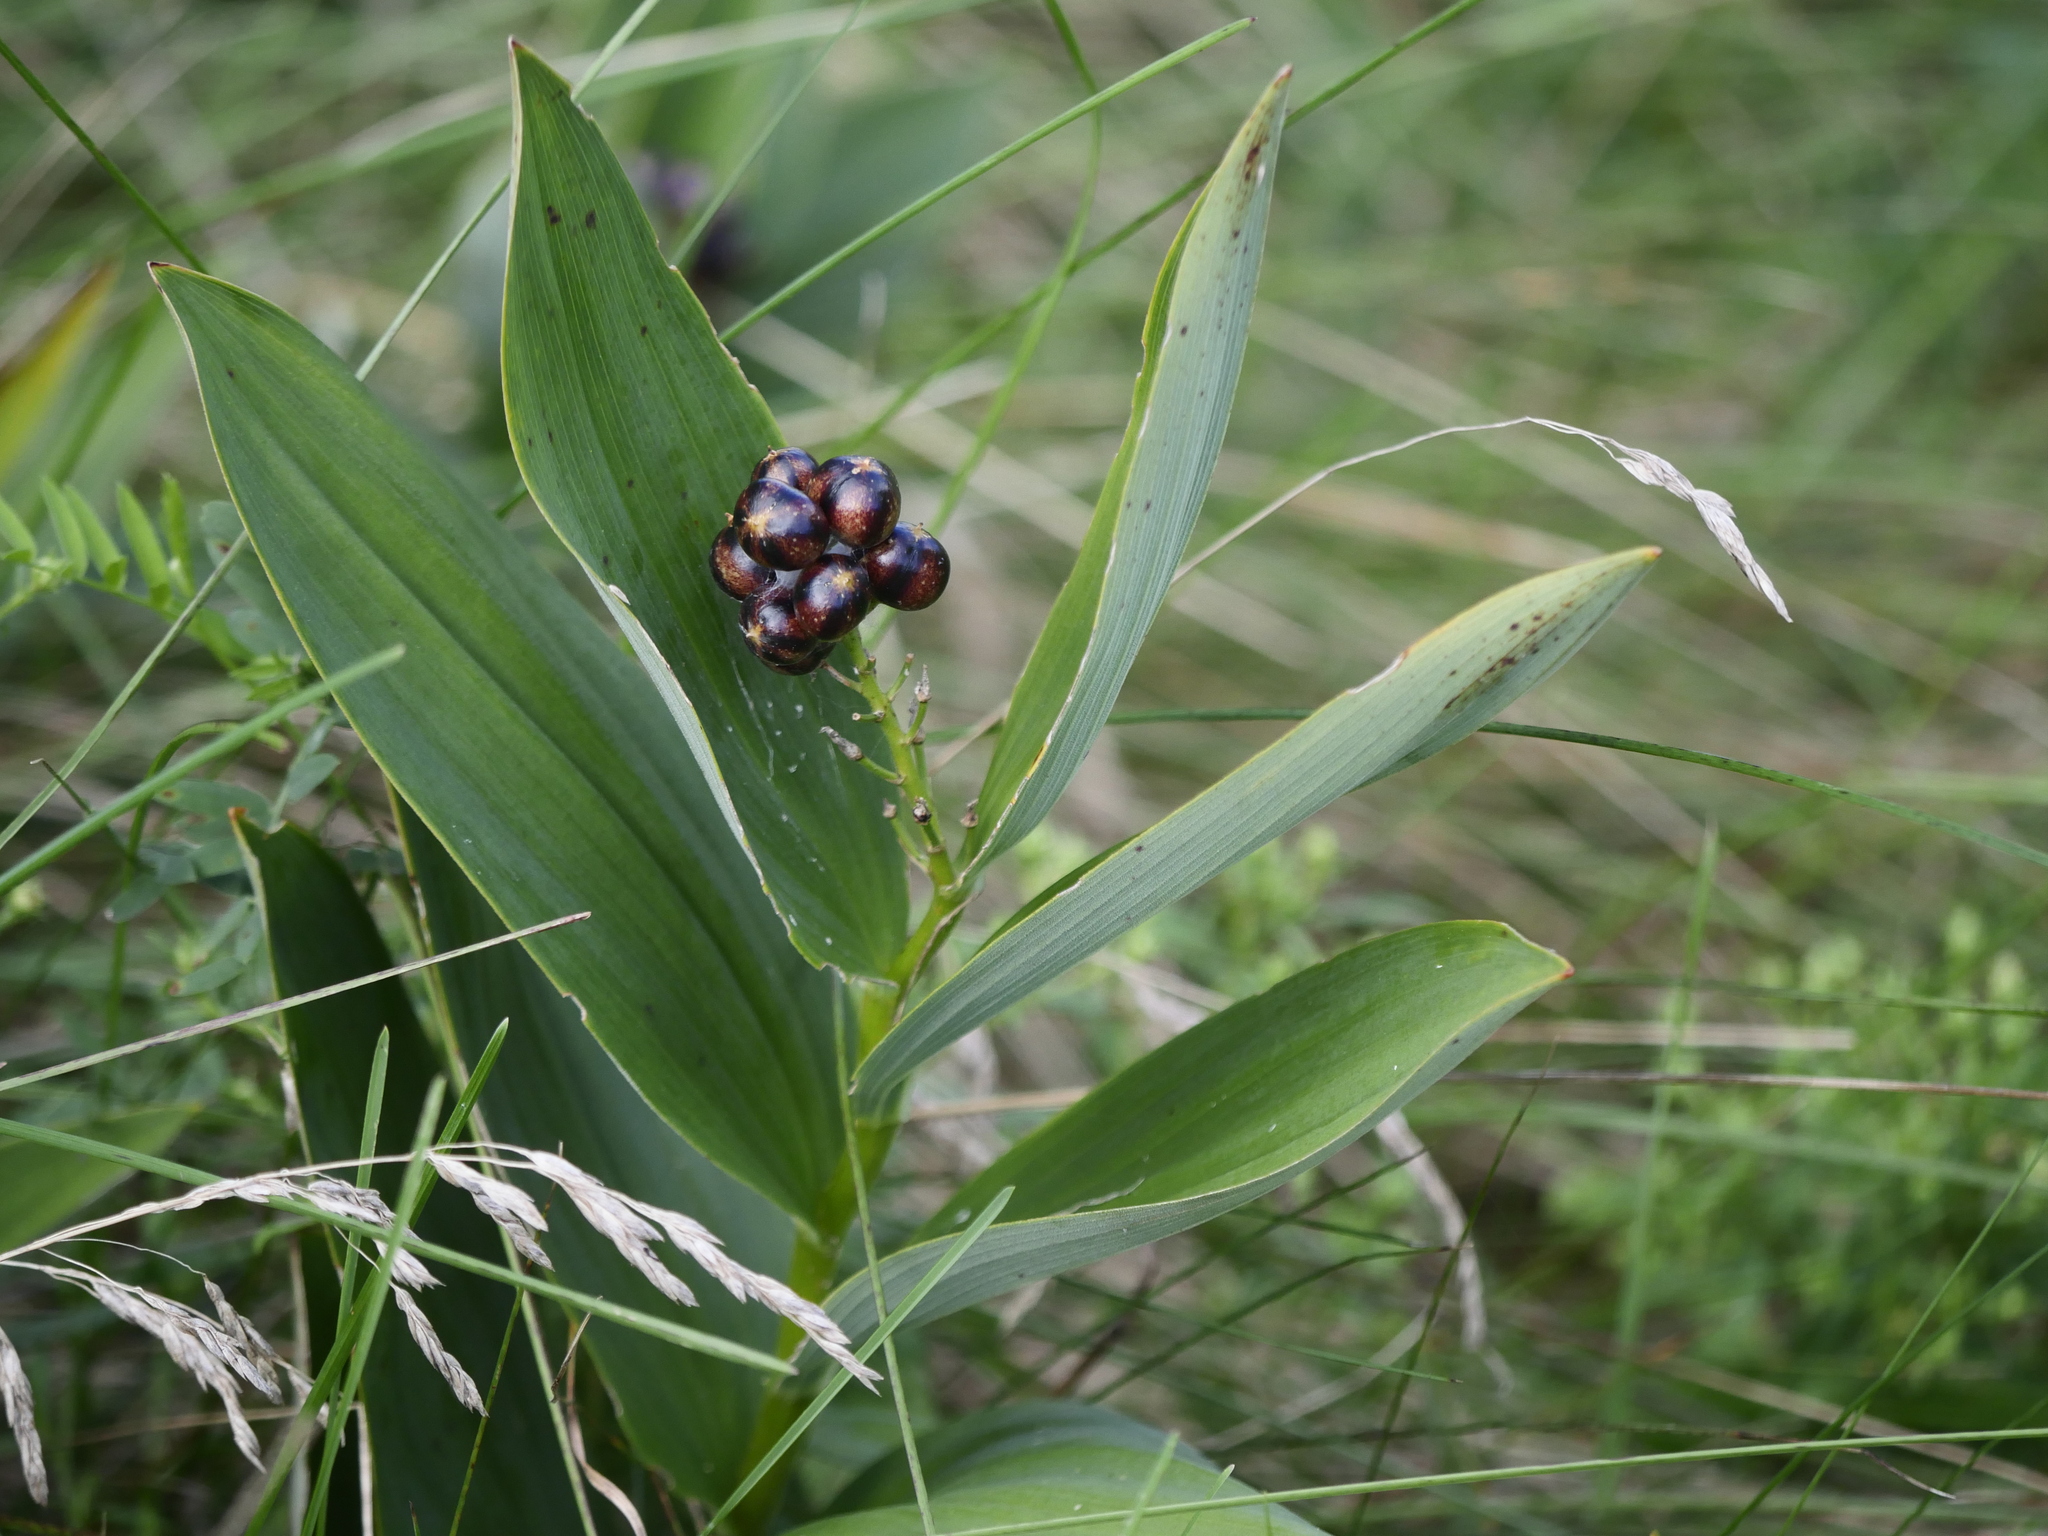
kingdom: Plantae
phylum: Tracheophyta
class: Liliopsida
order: Asparagales
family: Asparagaceae
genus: Maianthemum
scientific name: Maianthemum stellatum
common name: Little false solomon's seal
